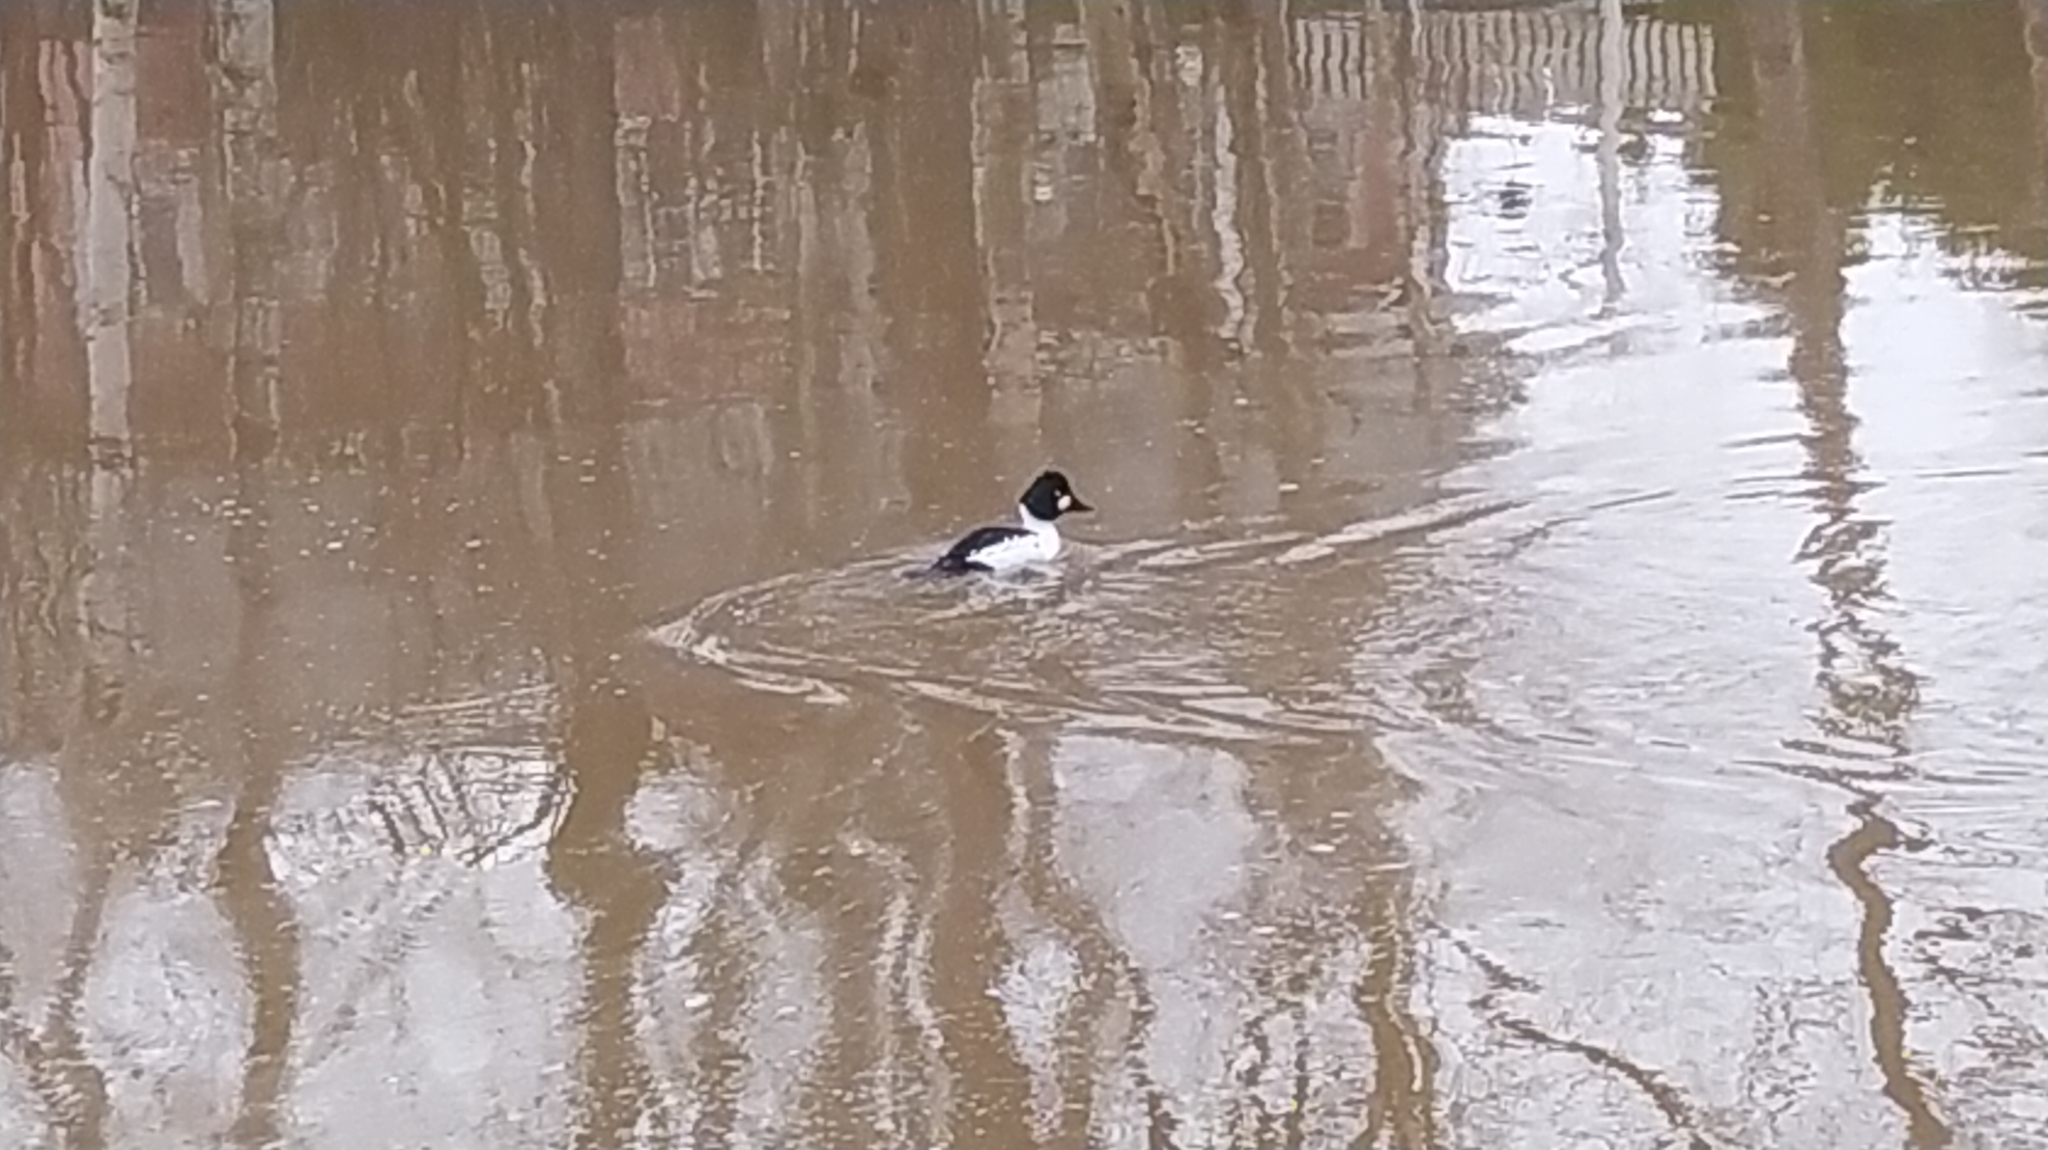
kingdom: Animalia
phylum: Chordata
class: Aves
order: Anseriformes
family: Anatidae
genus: Bucephala
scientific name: Bucephala clangula
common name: Common goldeneye
